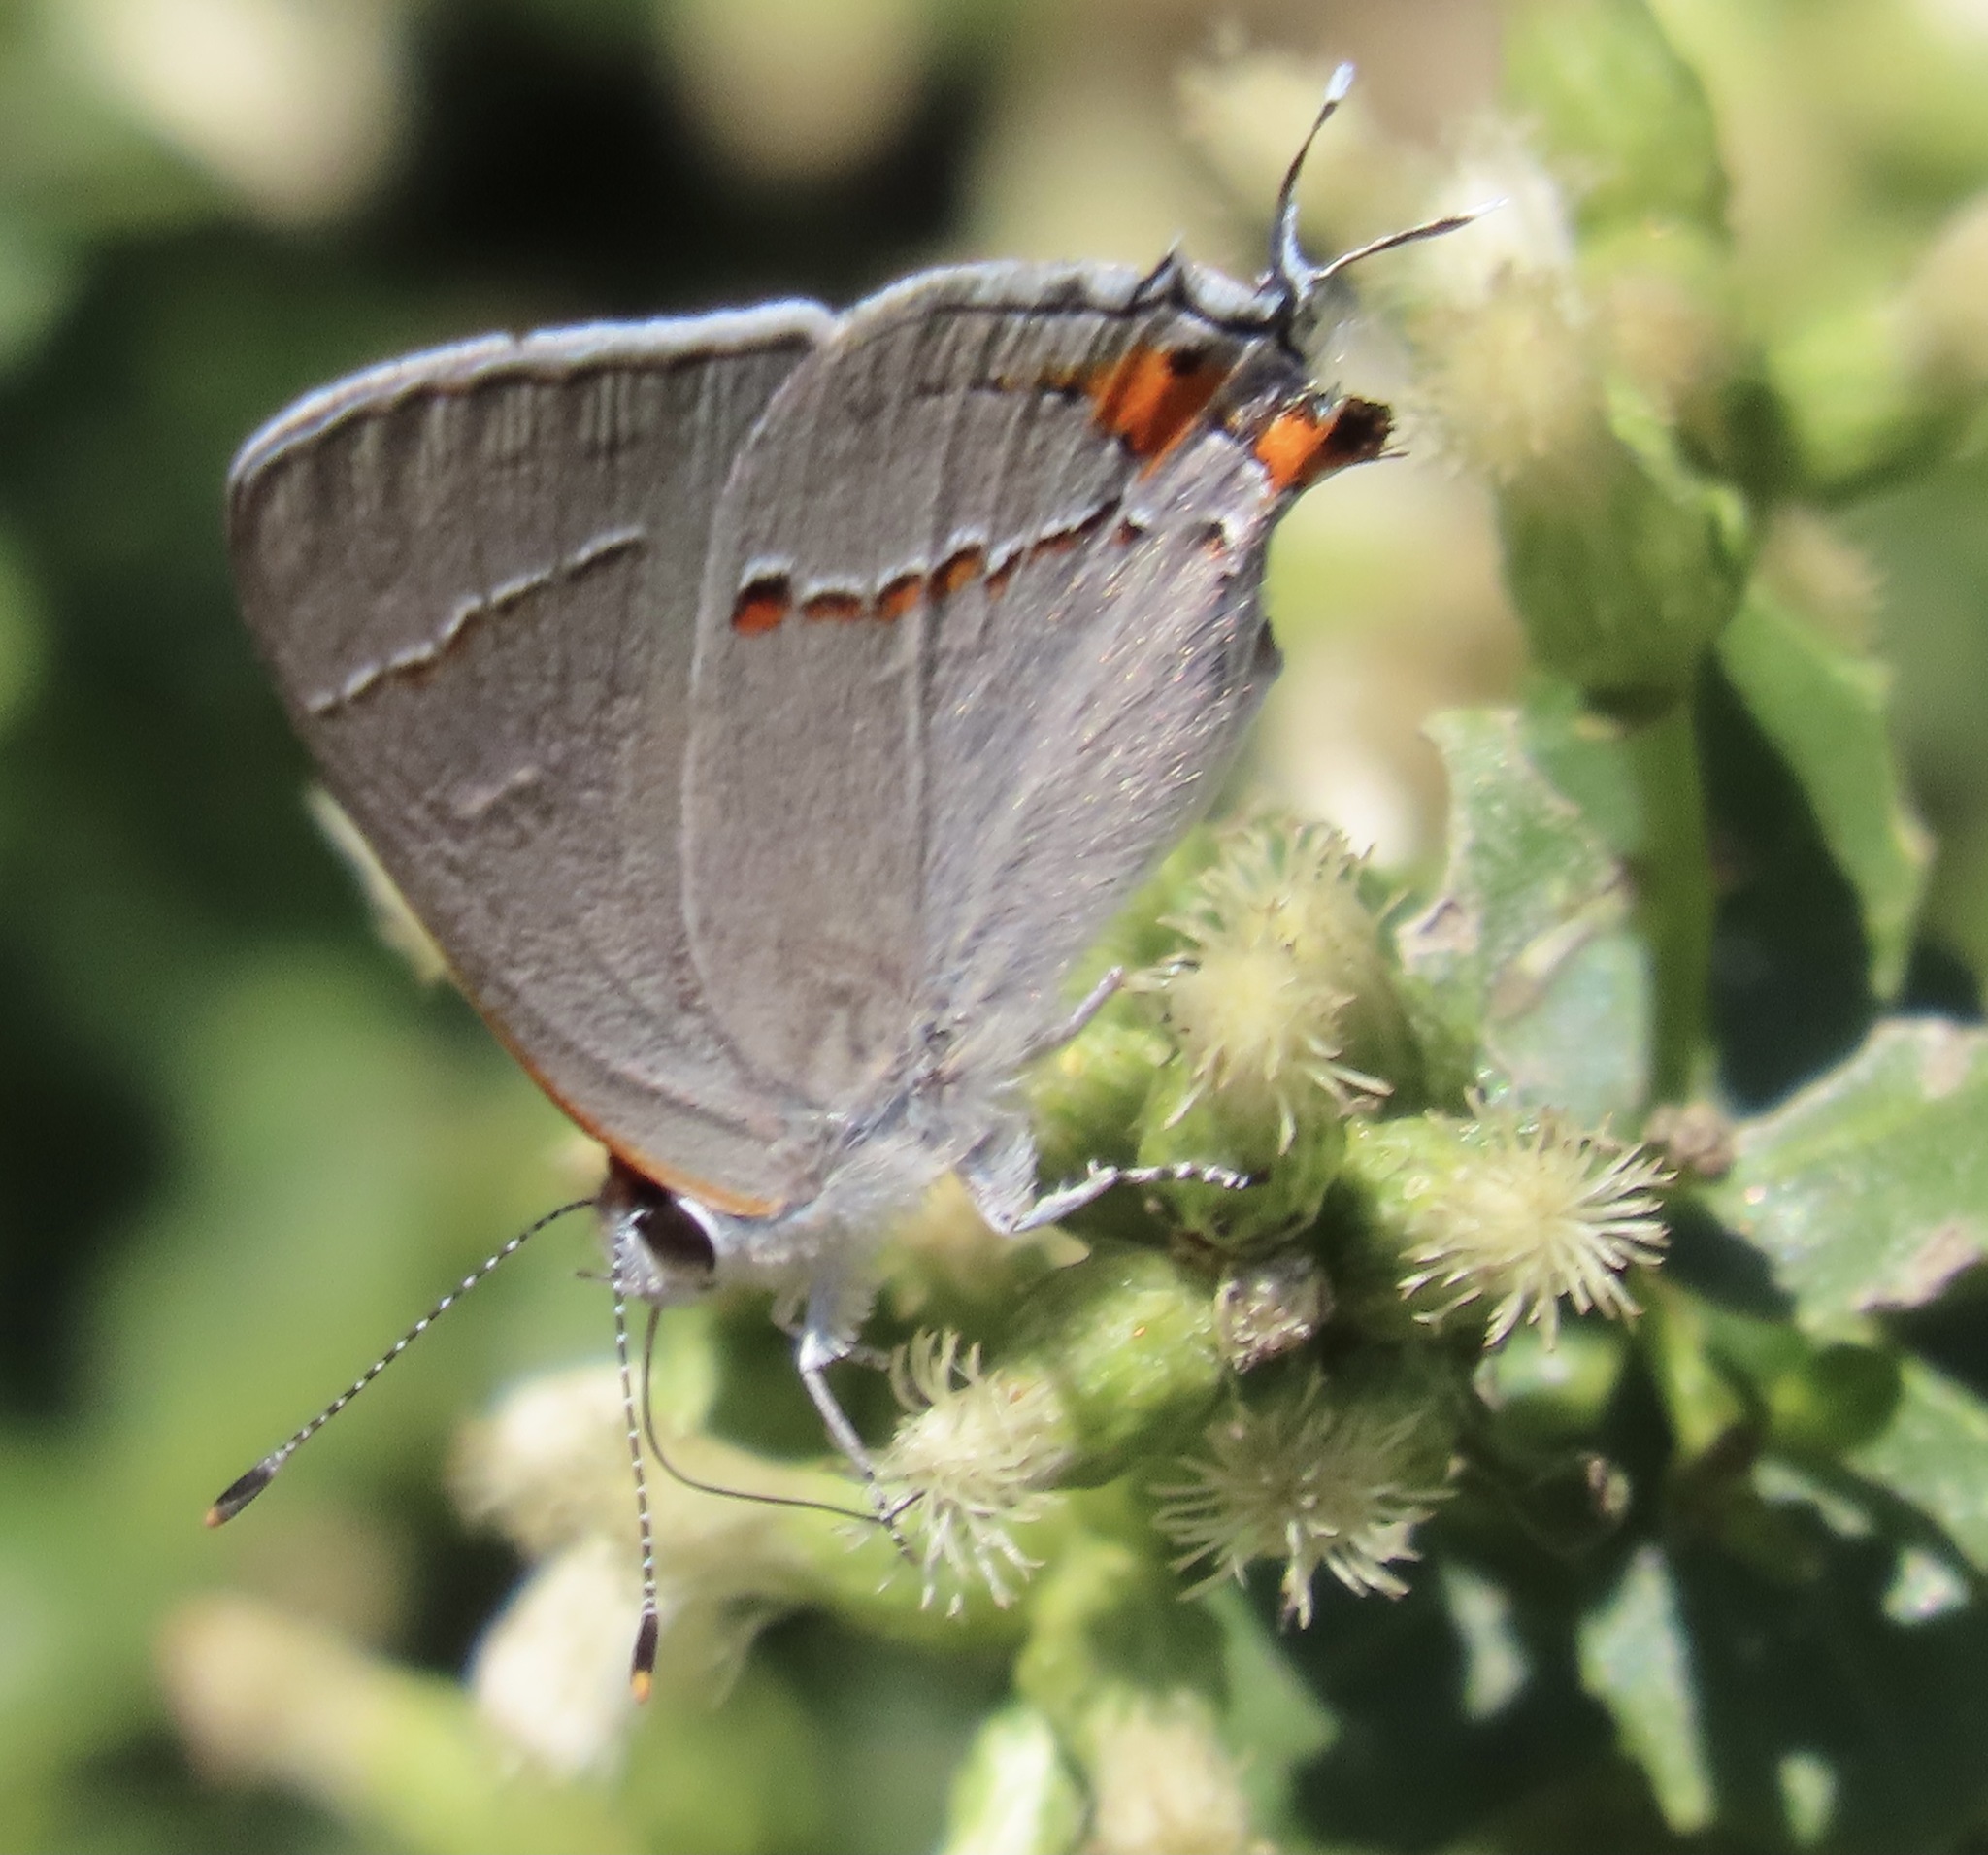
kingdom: Animalia
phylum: Arthropoda
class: Insecta
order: Lepidoptera
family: Lycaenidae
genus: Strymon
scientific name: Strymon melinus
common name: Gray hairstreak
